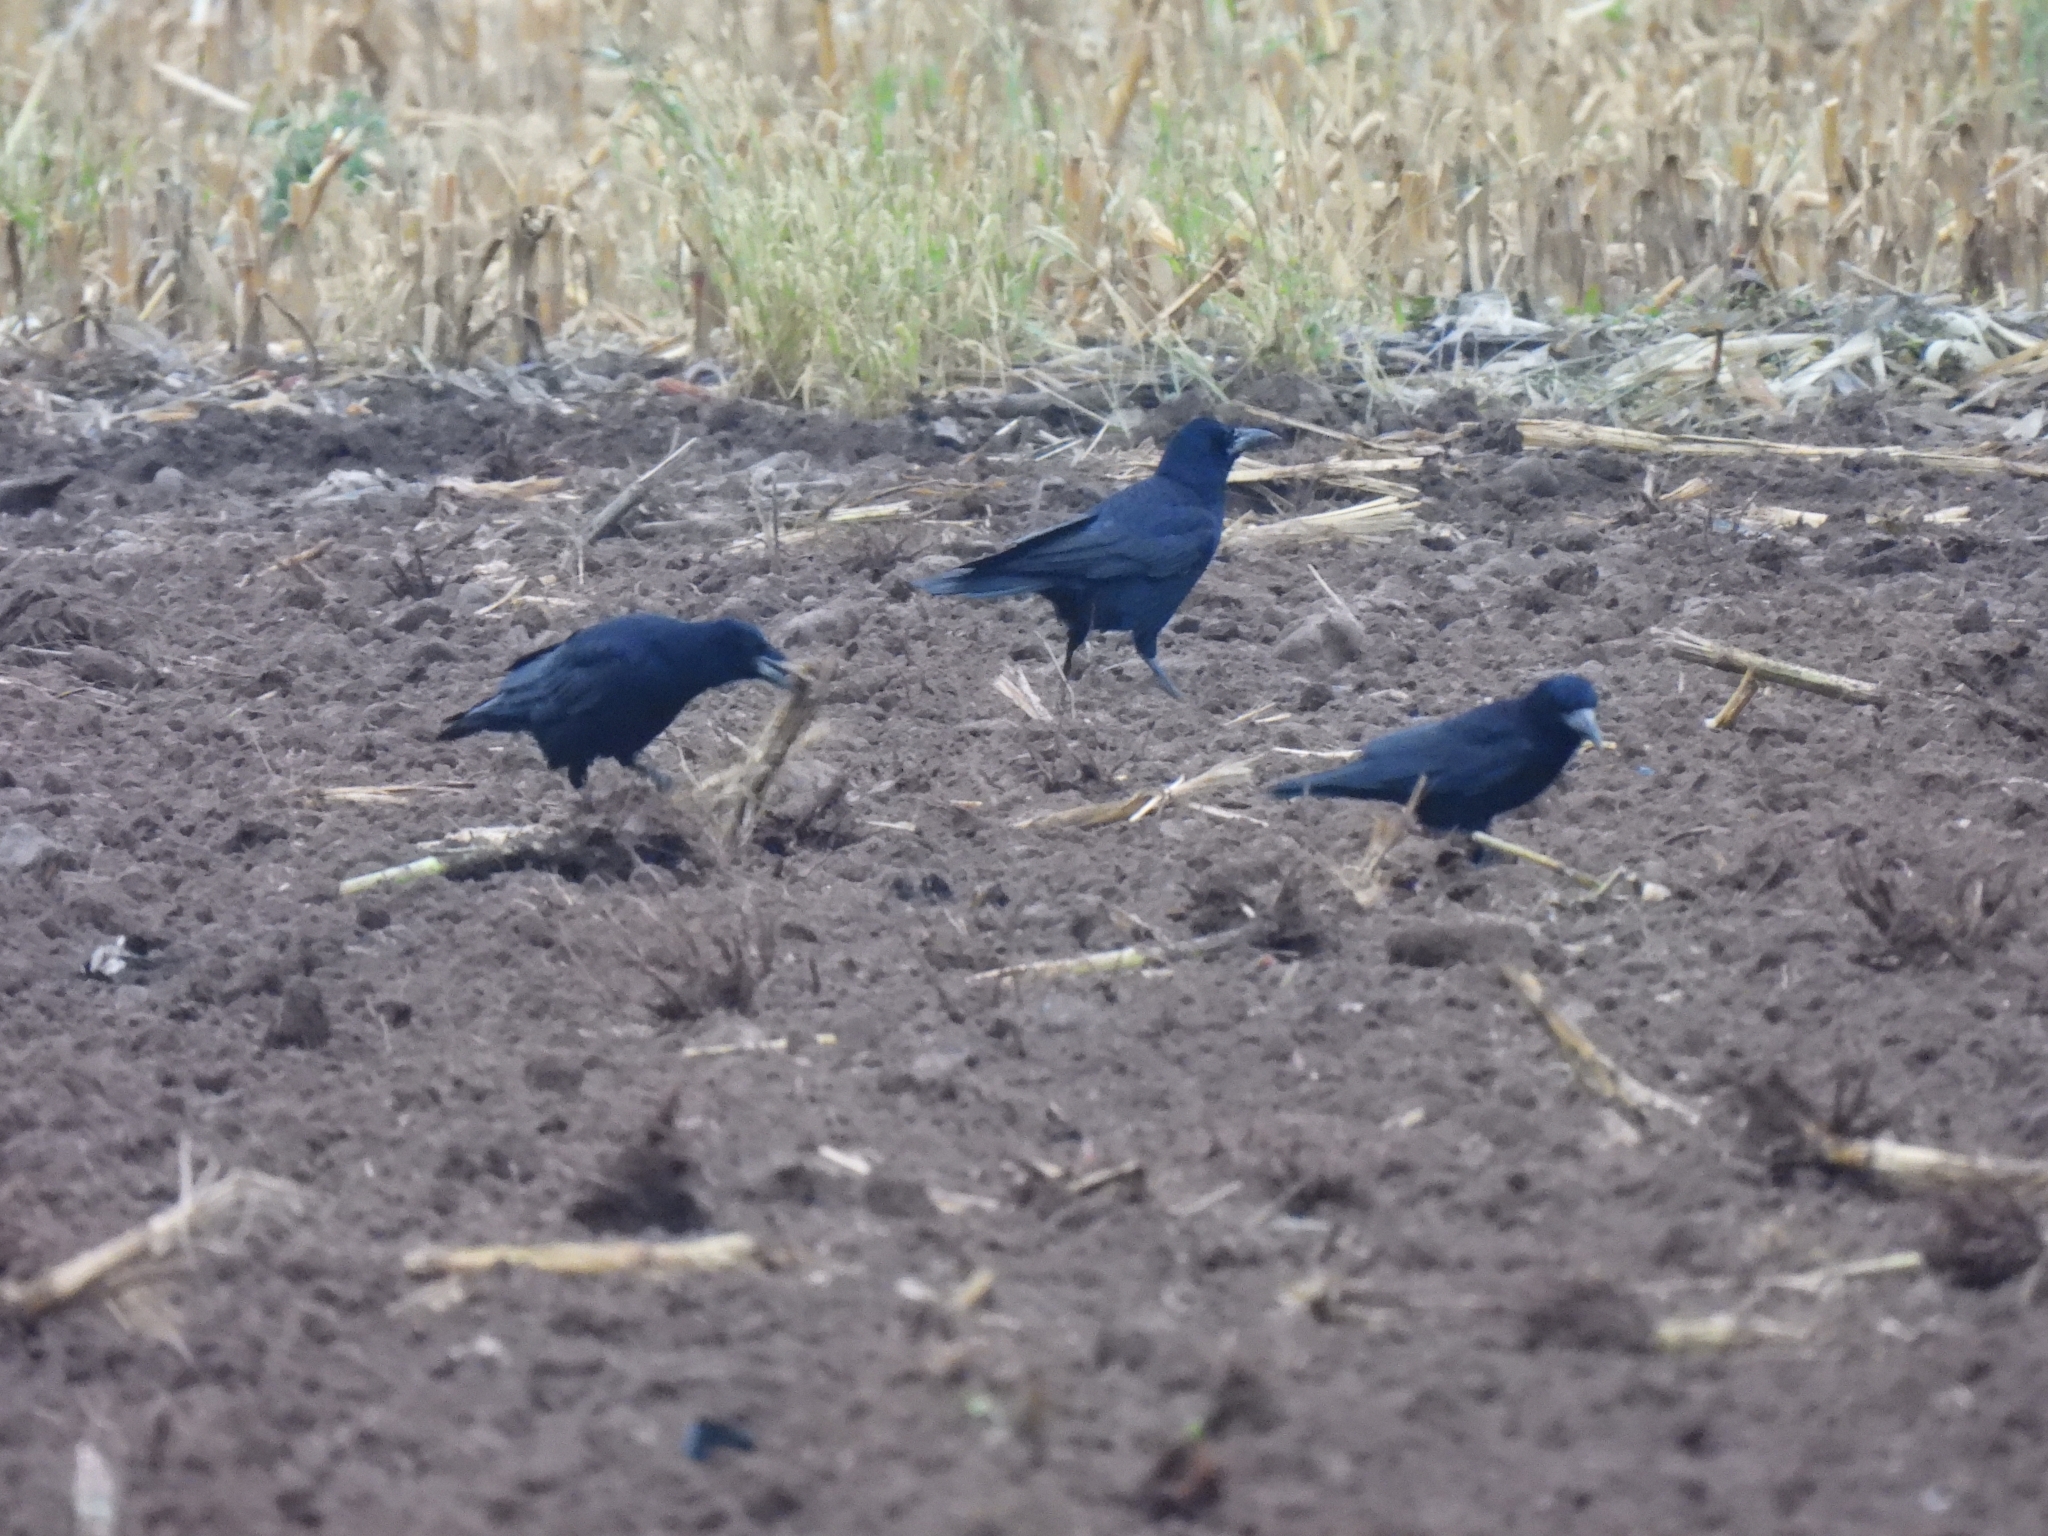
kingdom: Animalia
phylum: Chordata
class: Aves
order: Passeriformes
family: Corvidae
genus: Corvus
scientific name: Corvus frugilegus
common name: Rook
